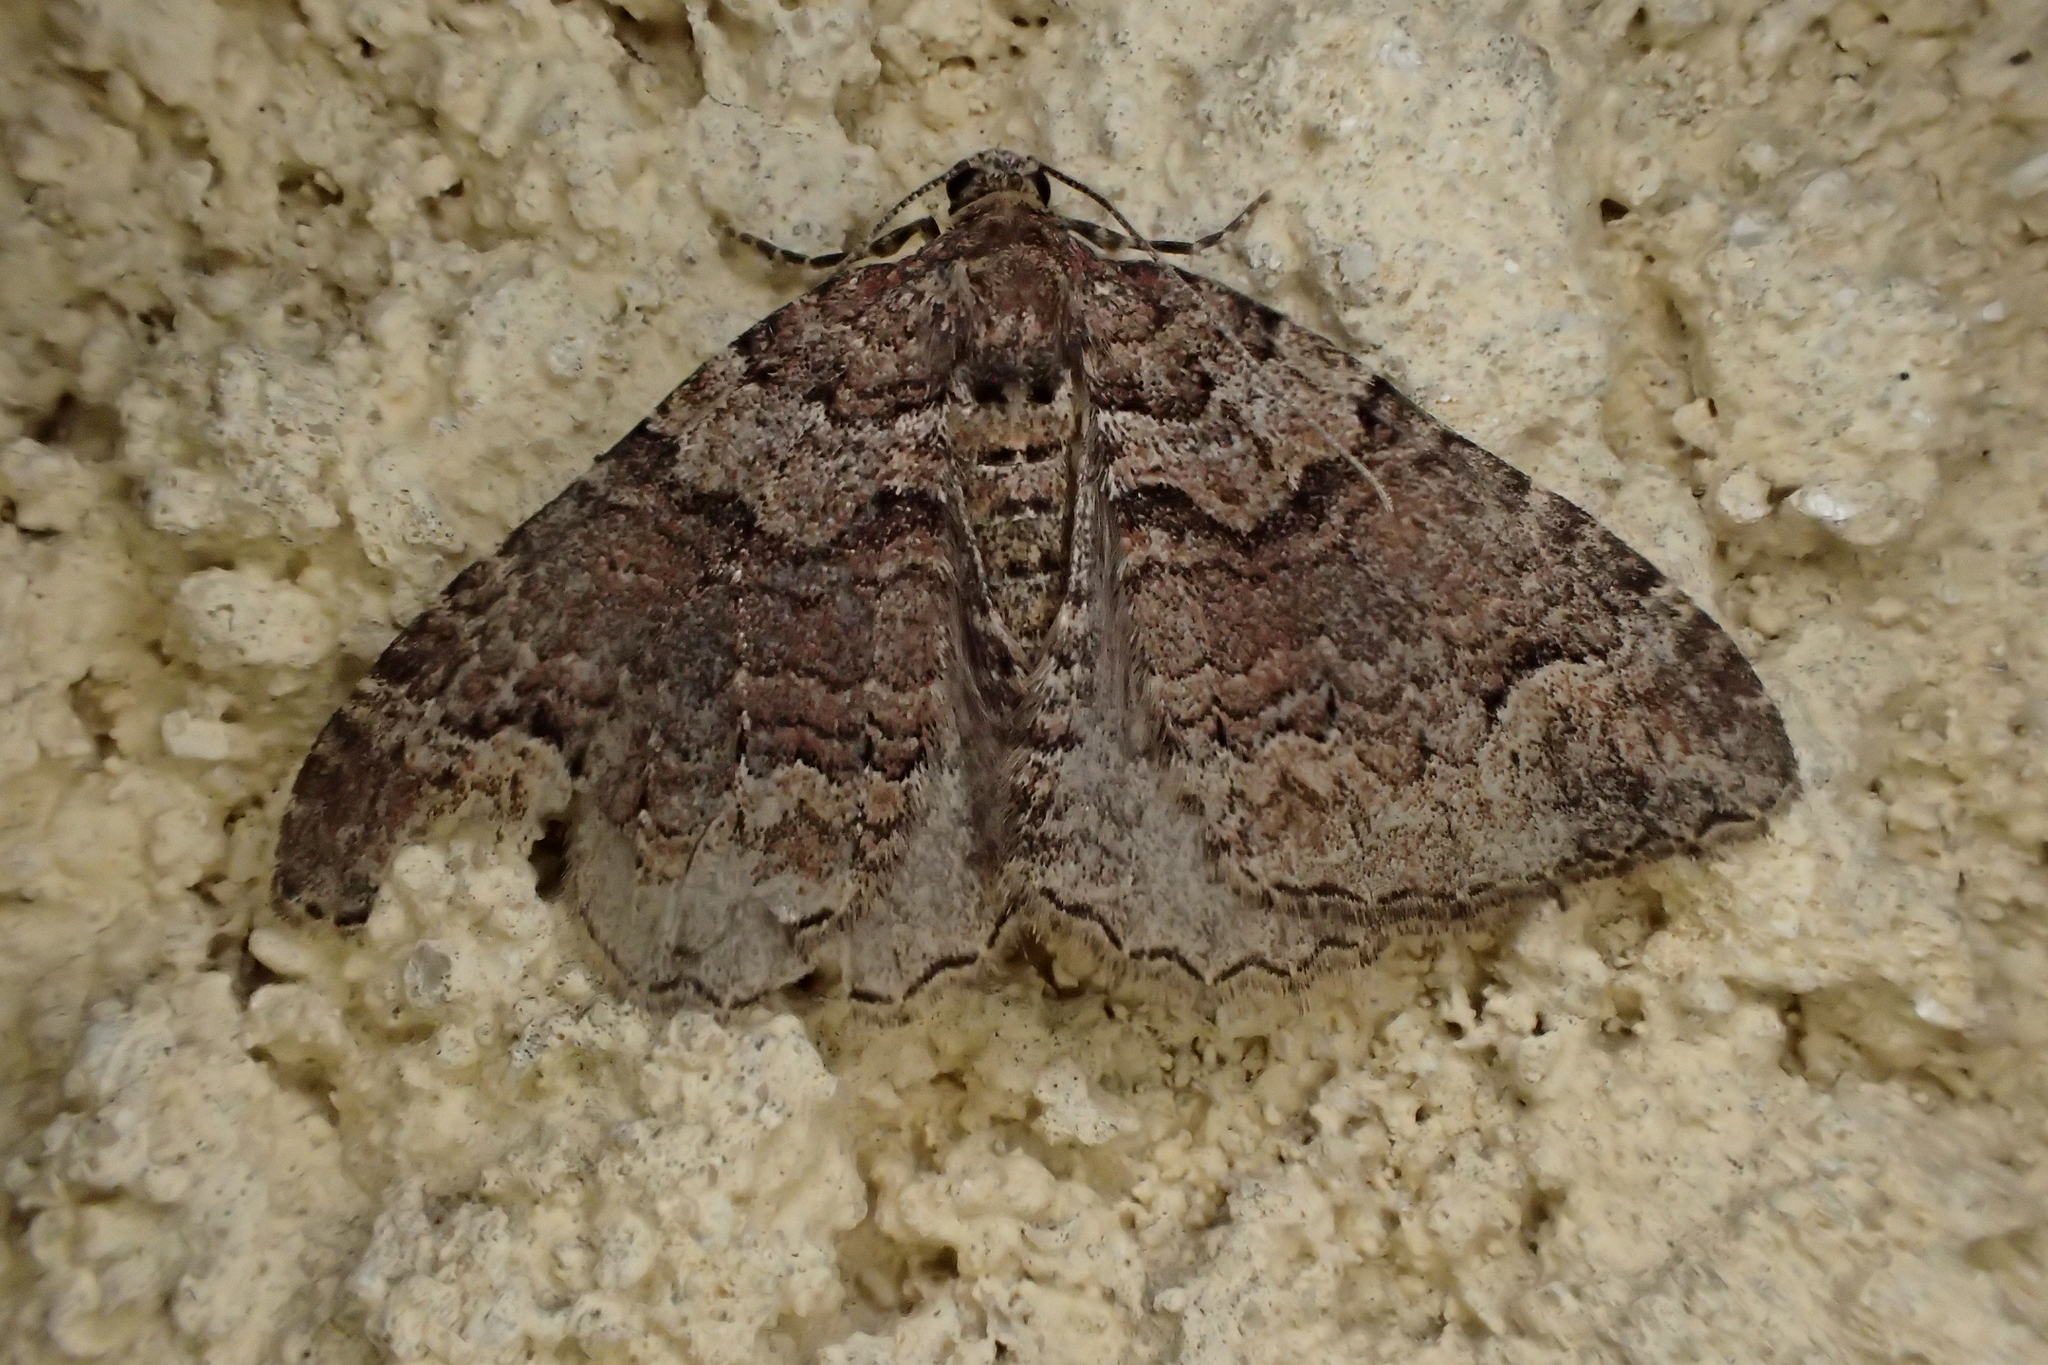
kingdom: Animalia
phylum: Arthropoda
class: Insecta
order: Lepidoptera
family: Geometridae
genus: Catarhoe
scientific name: Catarhoe basochesiata
